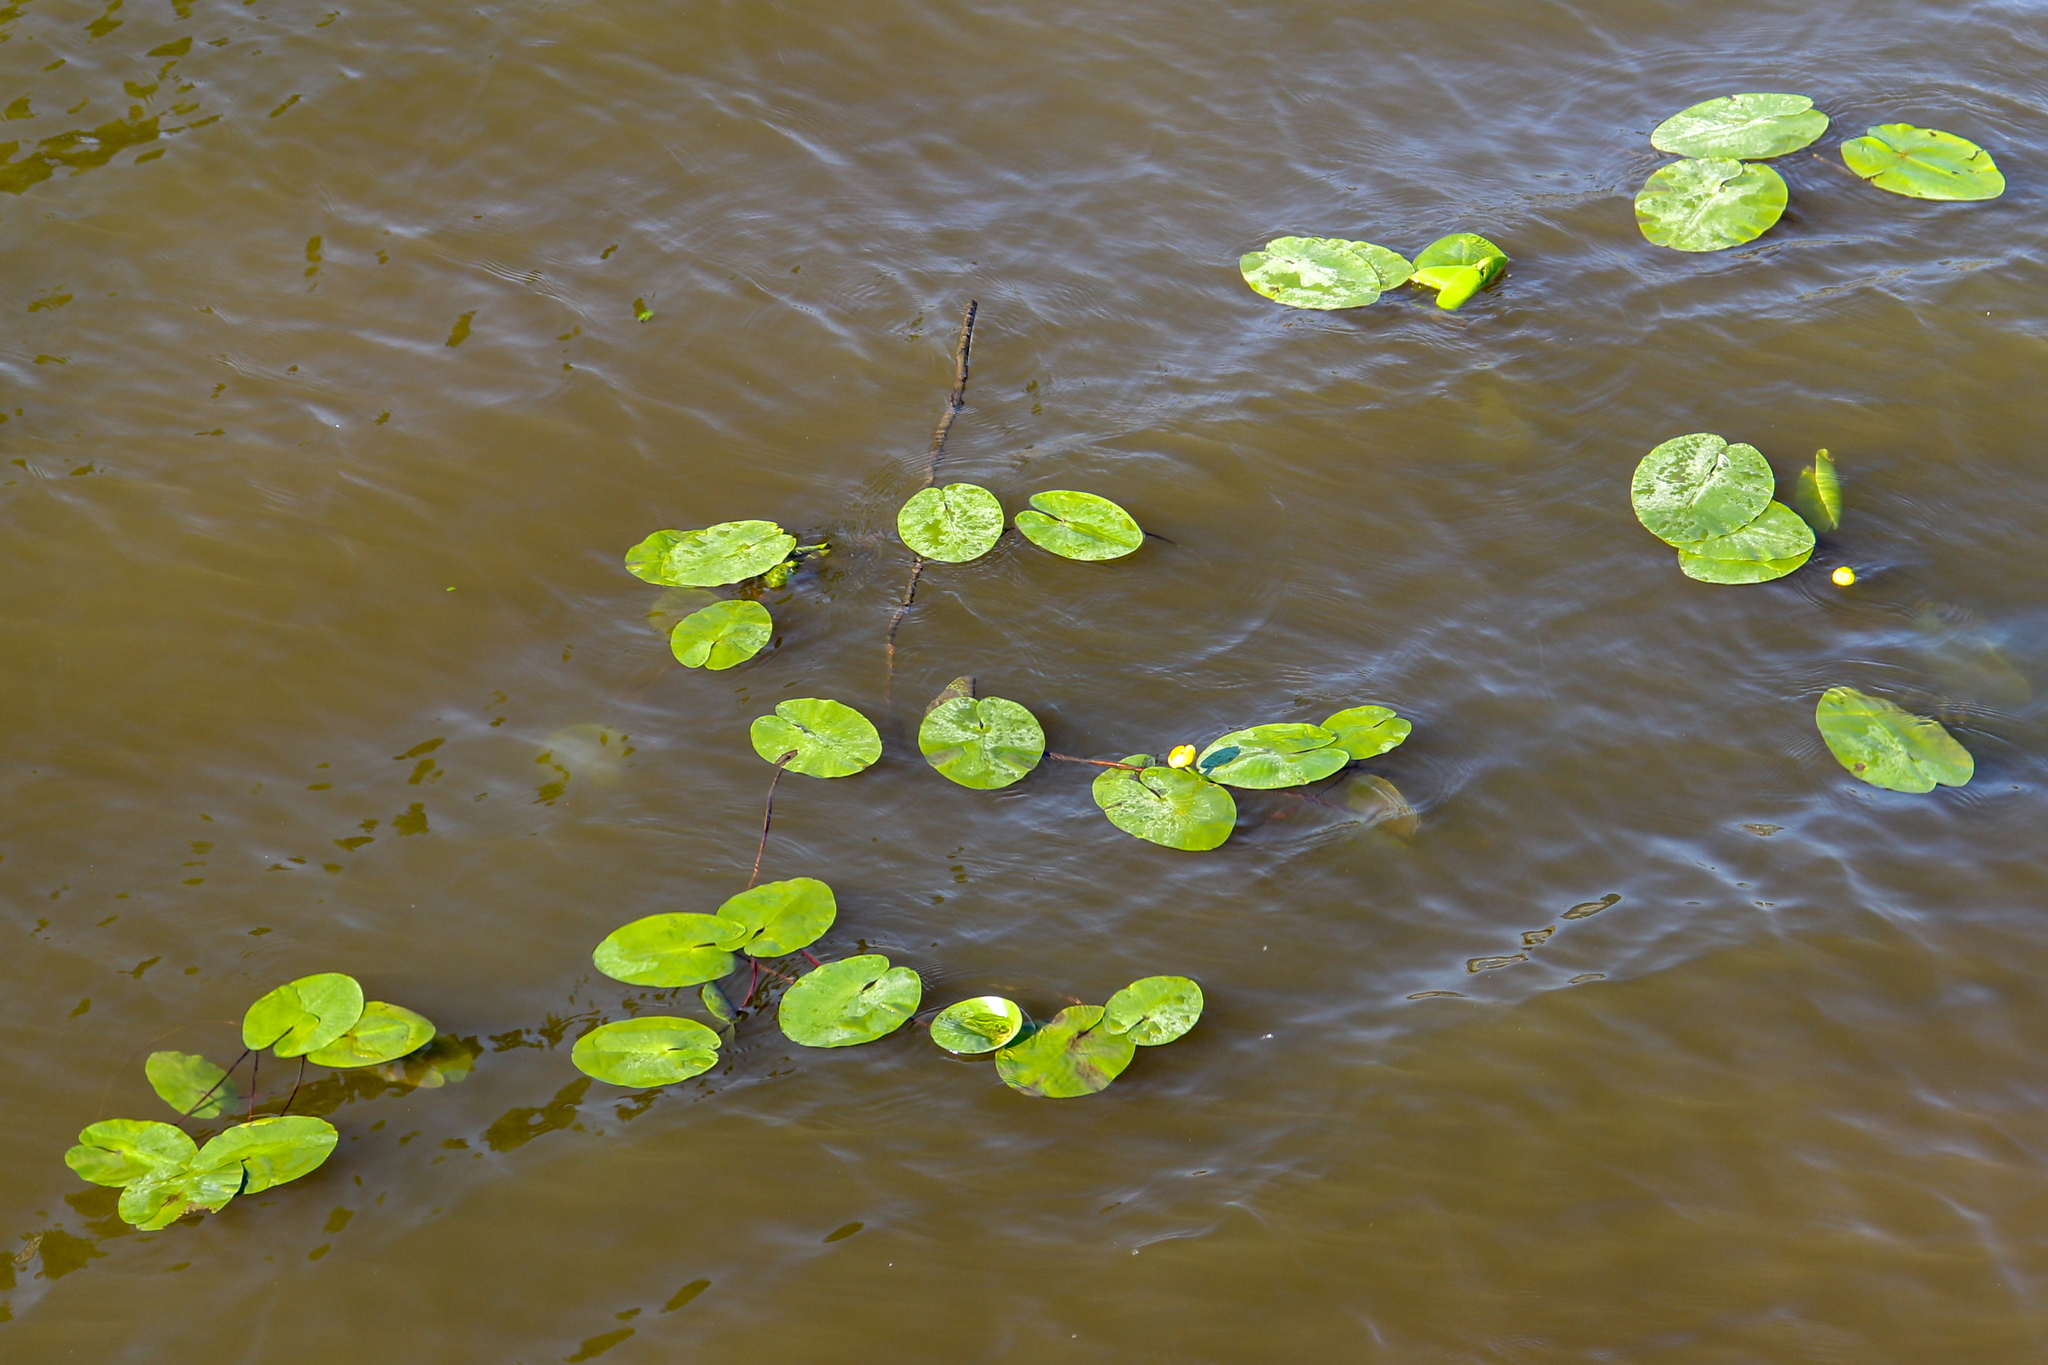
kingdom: Plantae
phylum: Tracheophyta
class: Magnoliopsida
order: Nymphaeales
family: Nymphaeaceae
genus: Nuphar
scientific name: Nuphar lutea
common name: Yellow water-lily
